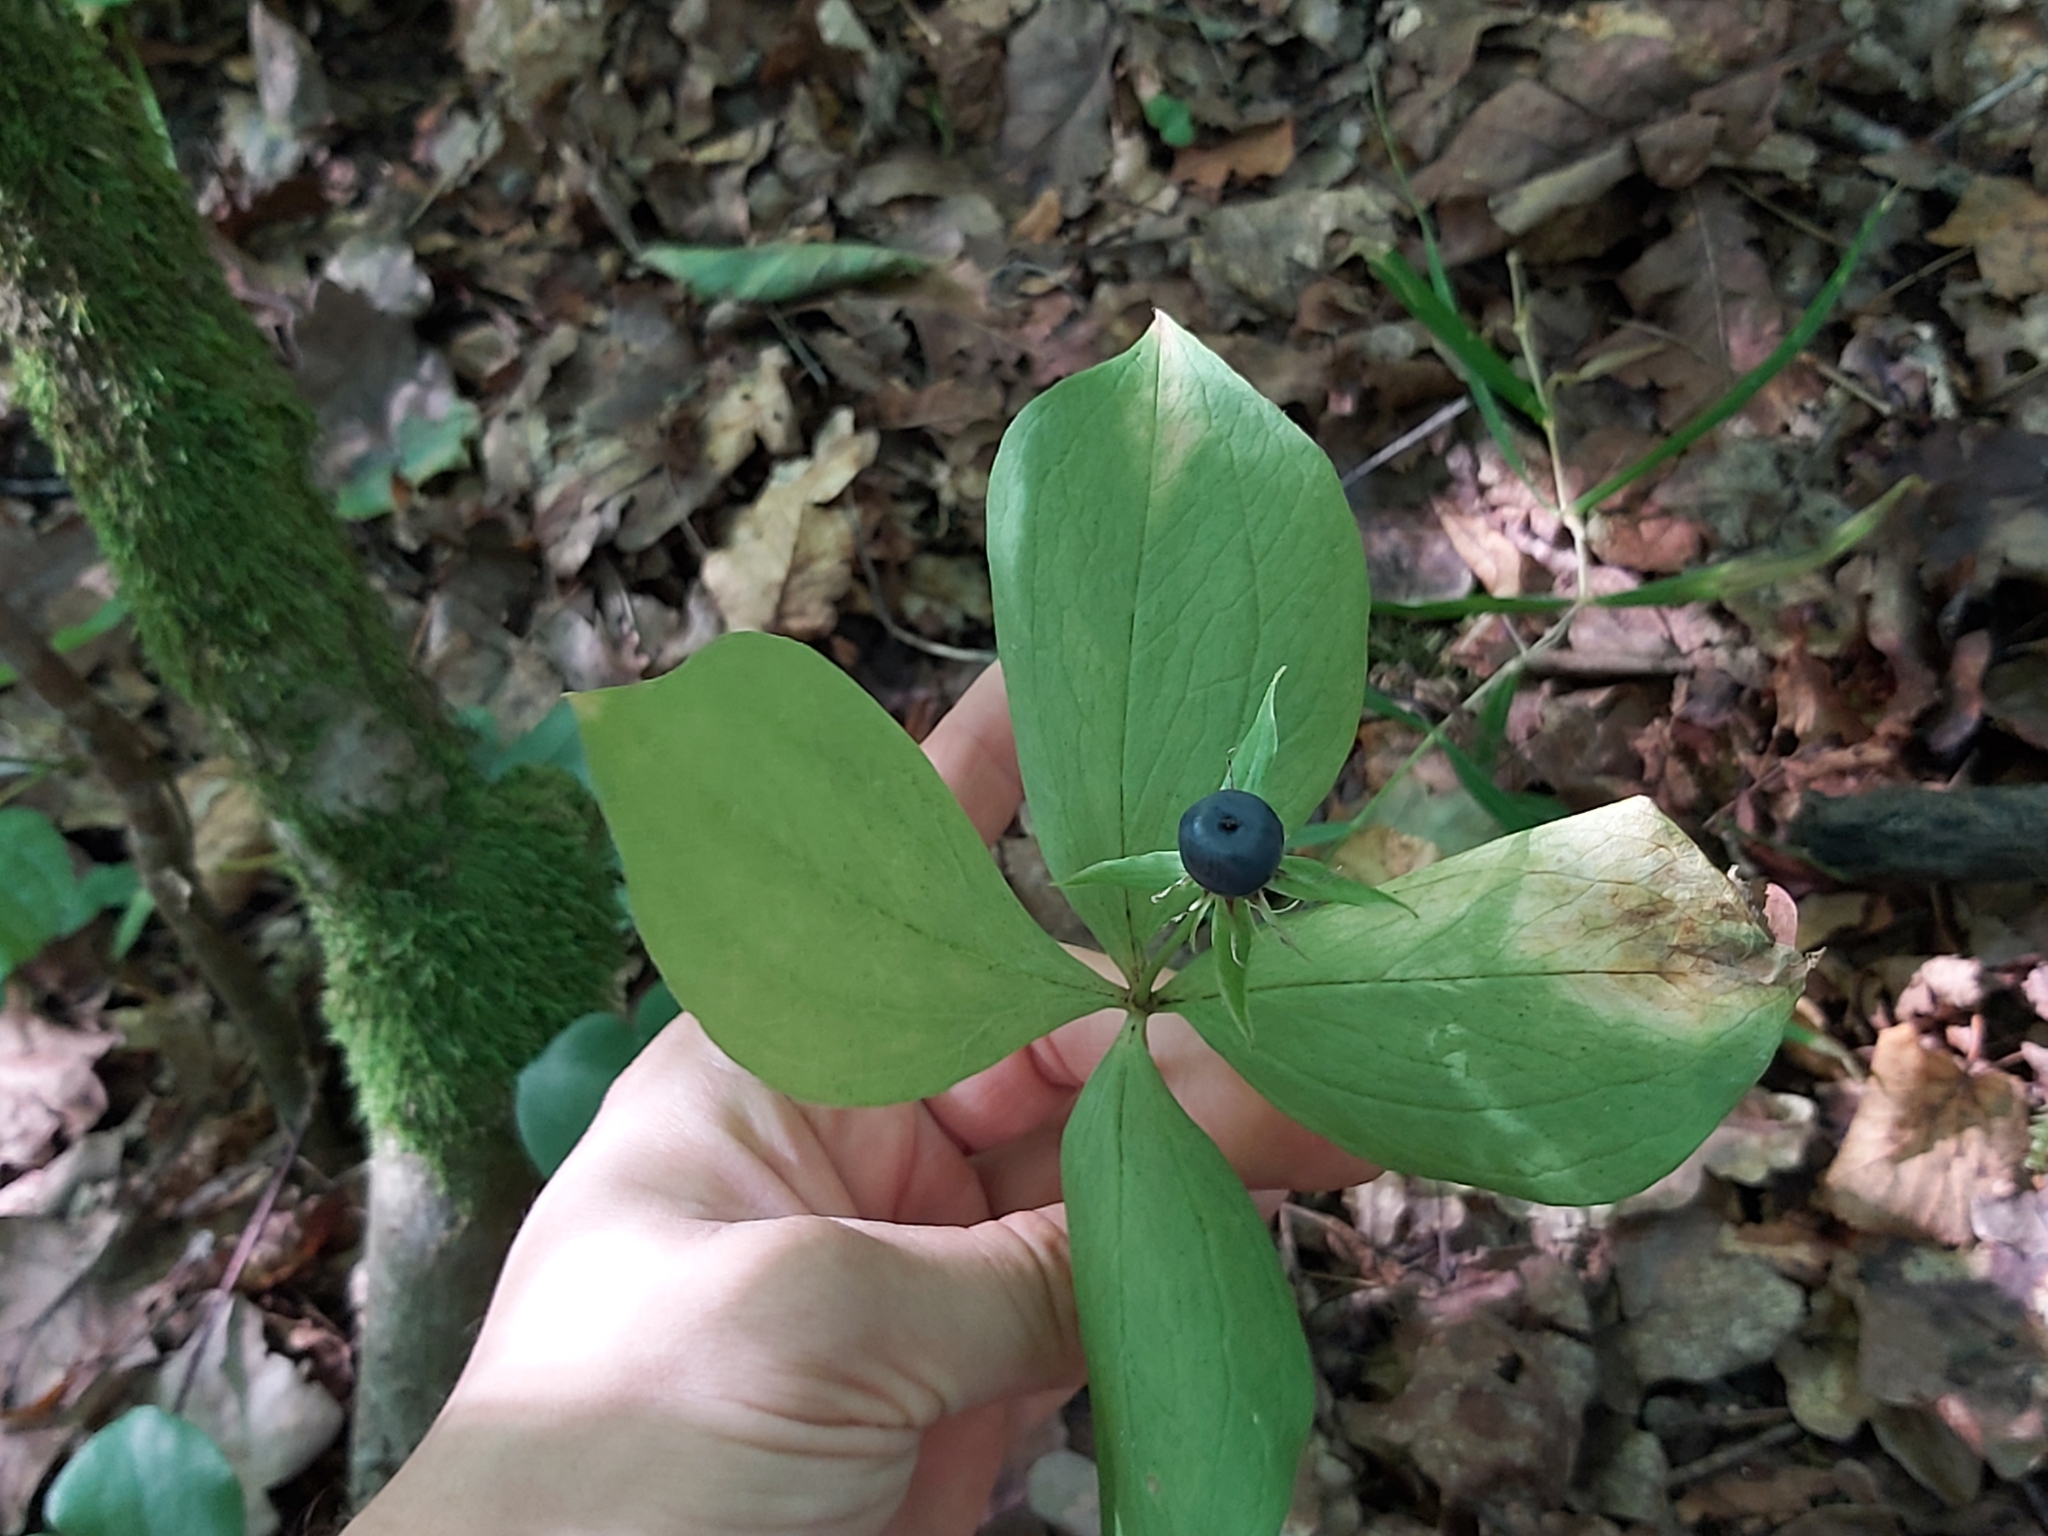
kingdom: Plantae
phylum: Tracheophyta
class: Liliopsida
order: Liliales
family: Melanthiaceae
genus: Paris
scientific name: Paris quadrifolia
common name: Herb-paris
